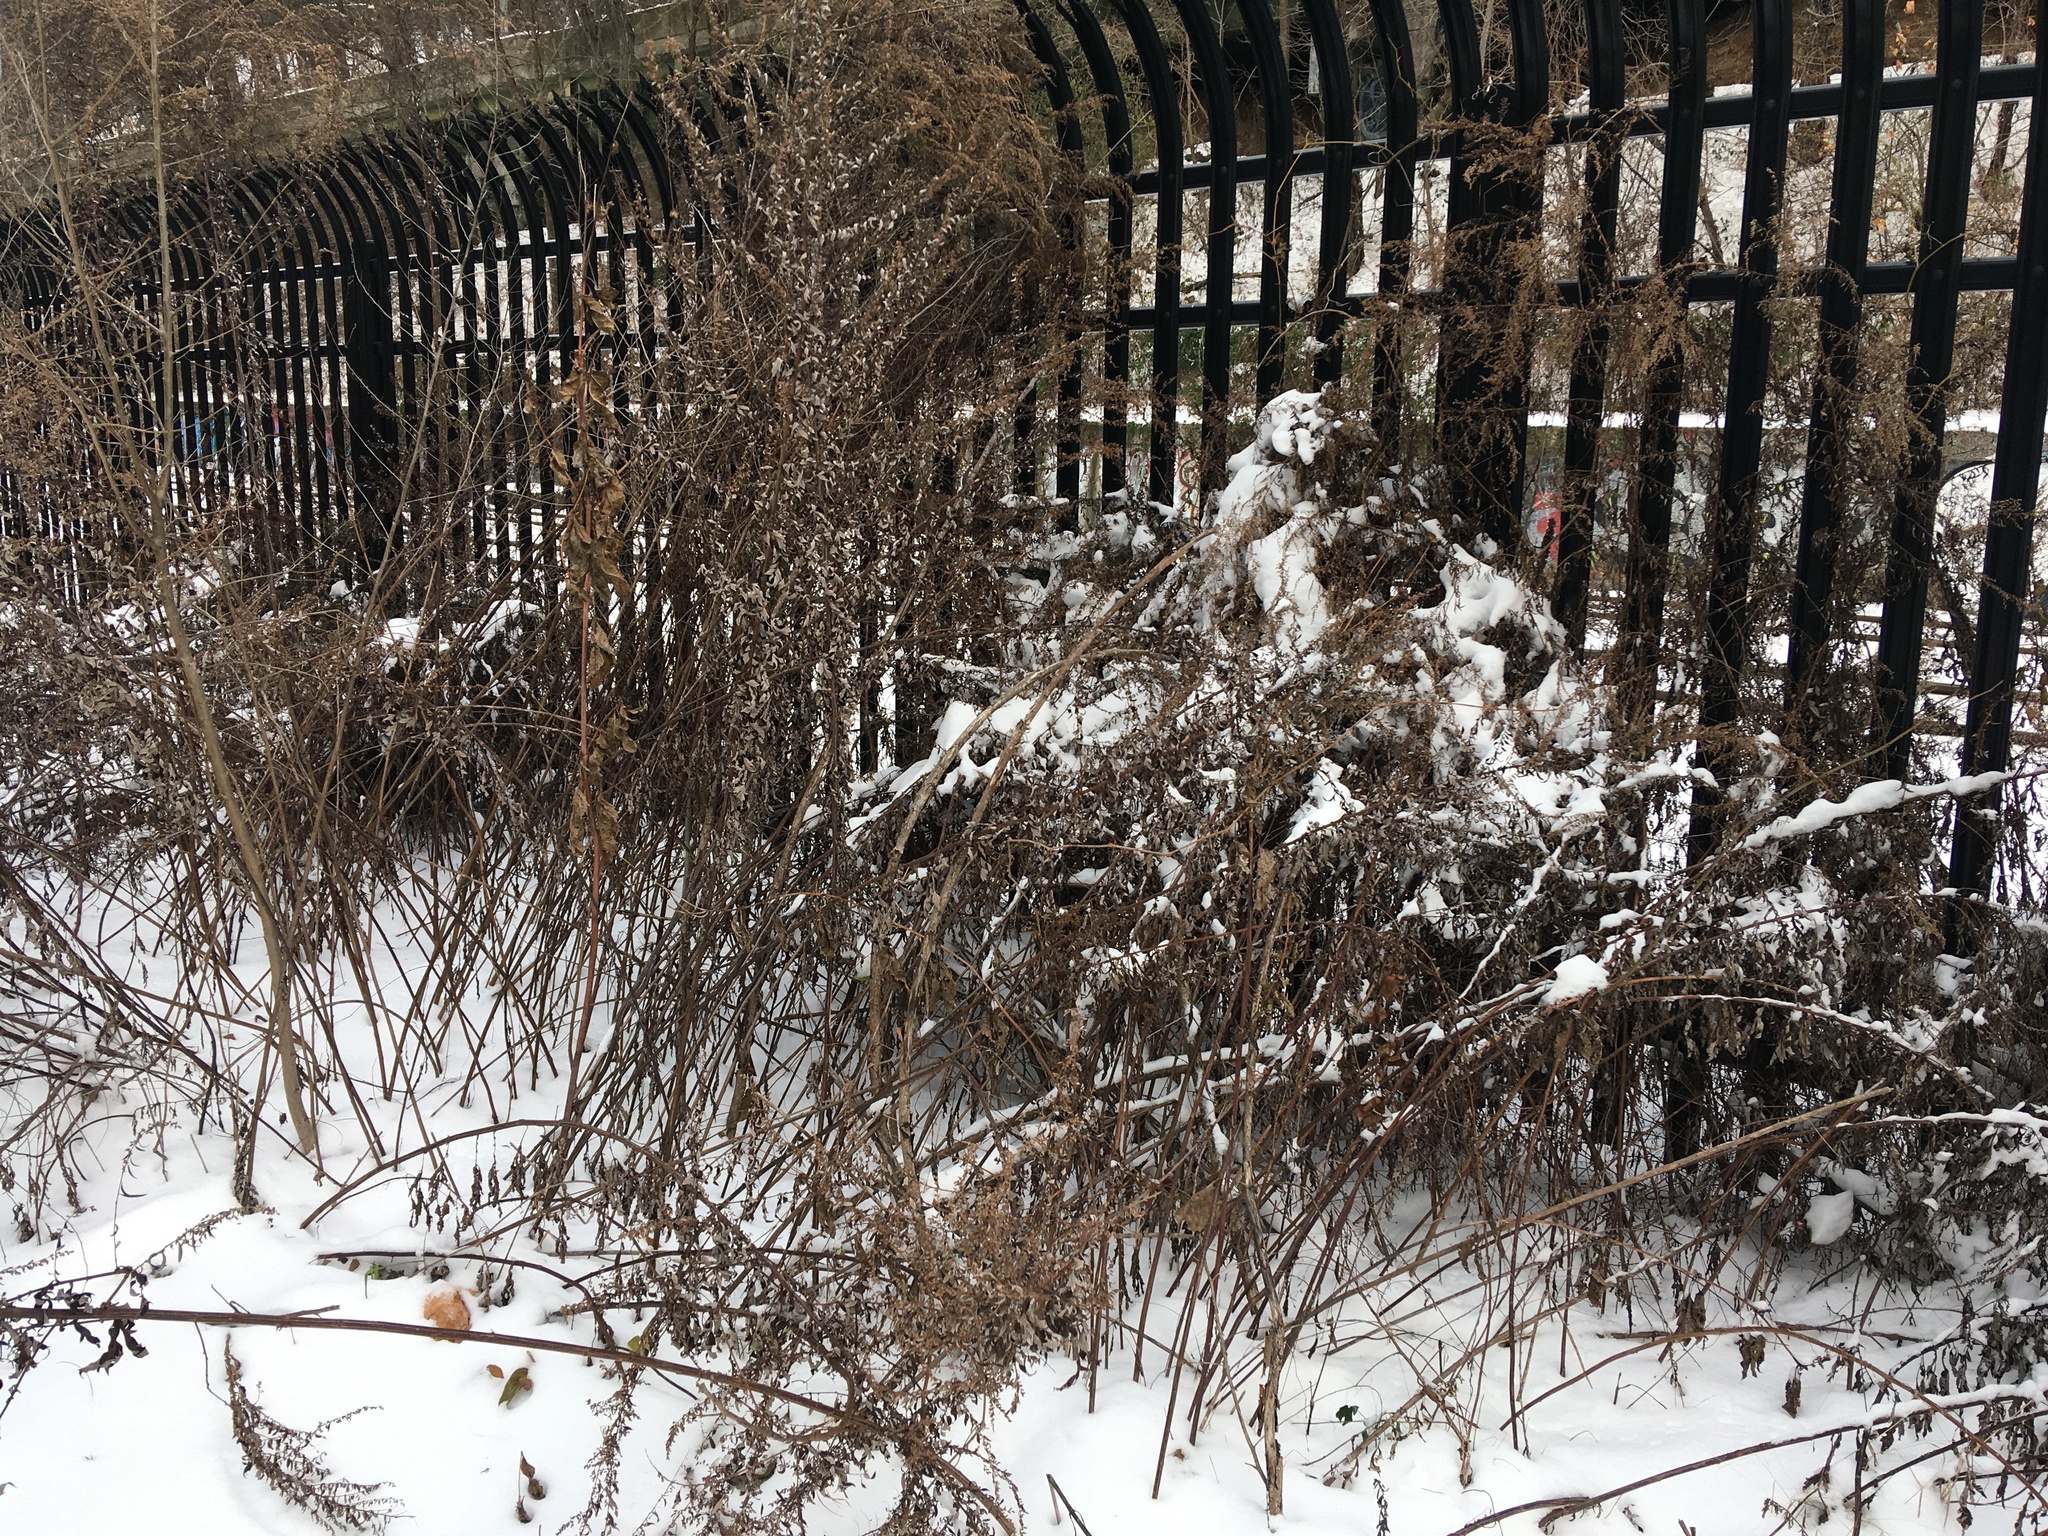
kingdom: Plantae
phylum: Tracheophyta
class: Magnoliopsida
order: Asterales
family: Asteraceae
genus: Artemisia
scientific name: Artemisia vulgaris
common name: Mugwort
